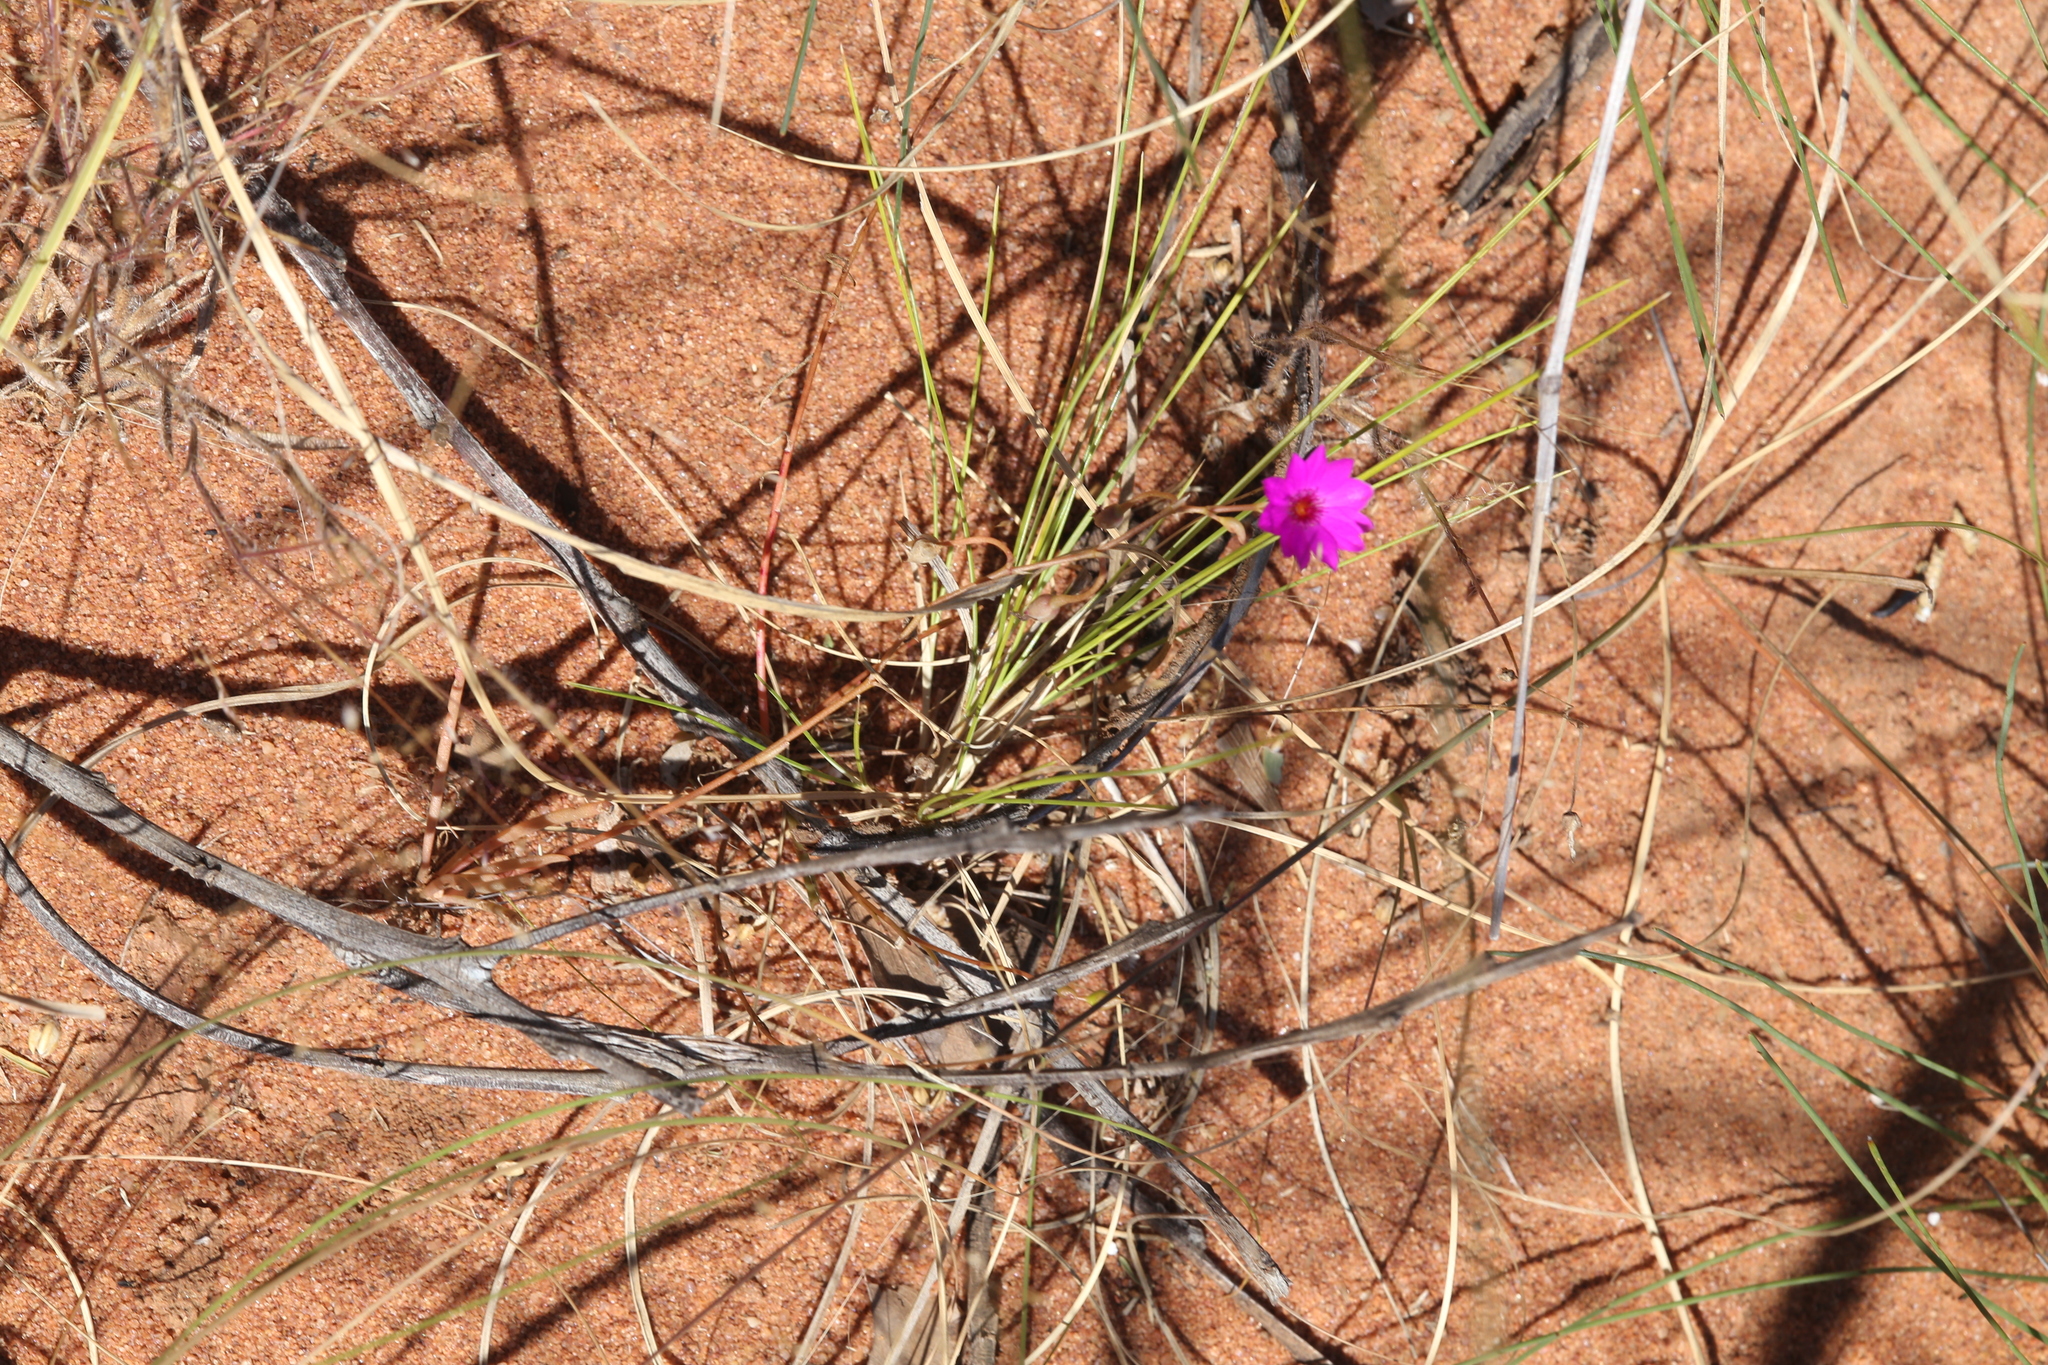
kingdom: Plantae
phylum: Tracheophyta
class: Magnoliopsida
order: Caryophyllales
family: Montiaceae
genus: Rumicastrum
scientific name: Rumicastrum strophiolatum
